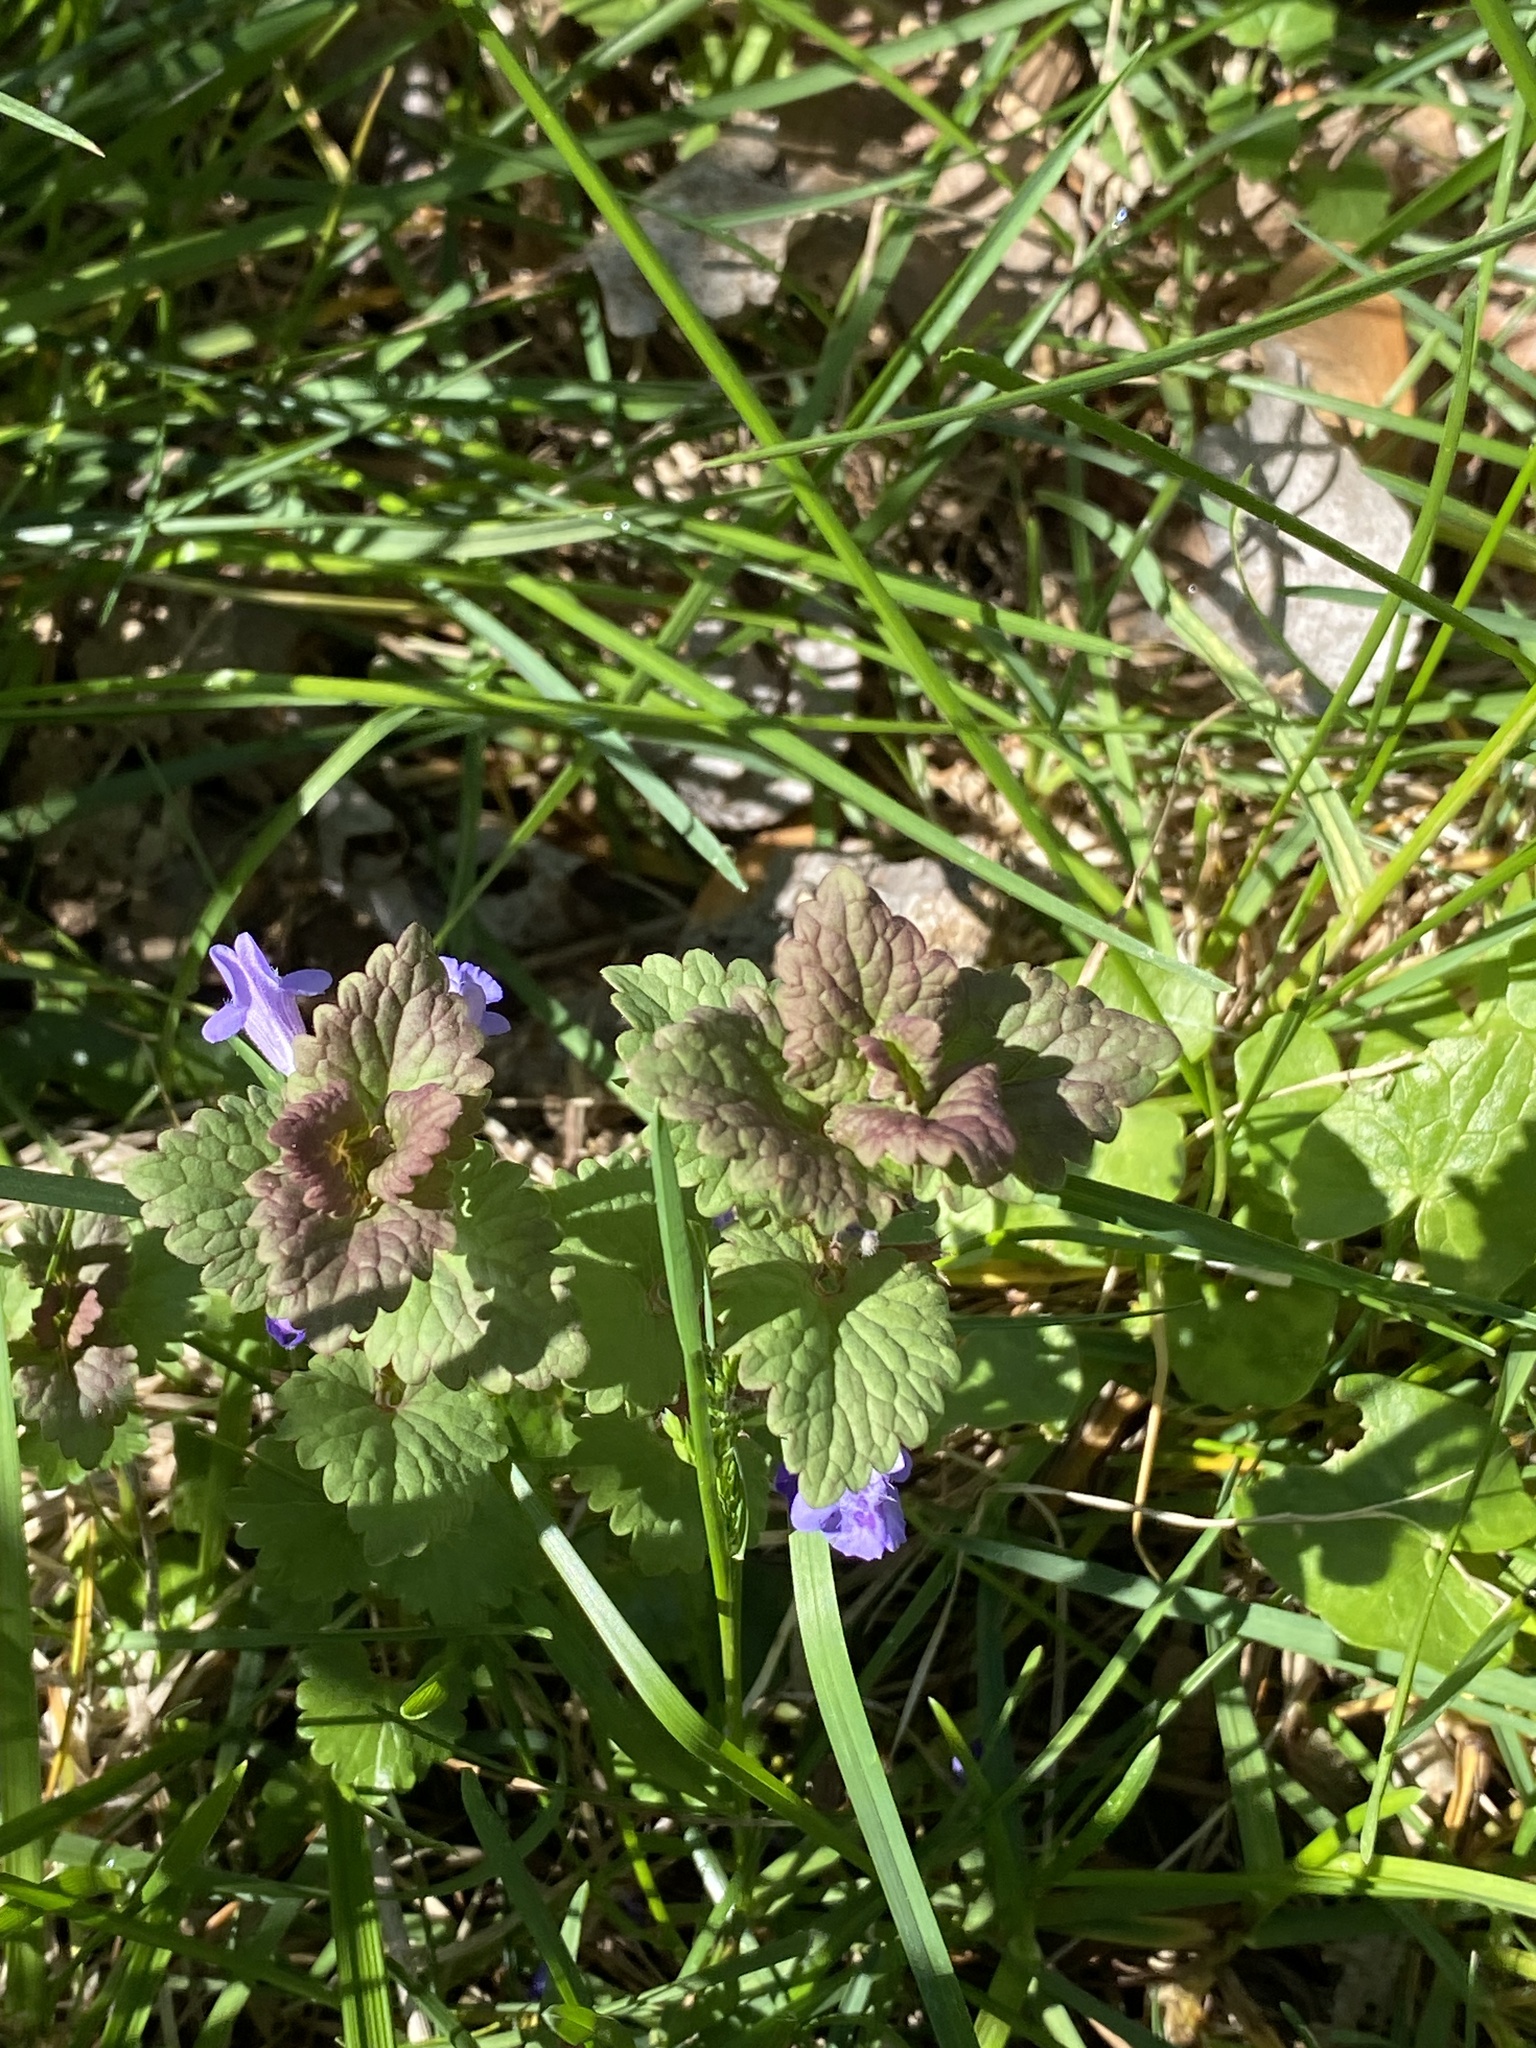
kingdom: Plantae
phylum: Tracheophyta
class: Magnoliopsida
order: Lamiales
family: Lamiaceae
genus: Glechoma
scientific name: Glechoma hederacea
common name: Ground ivy
